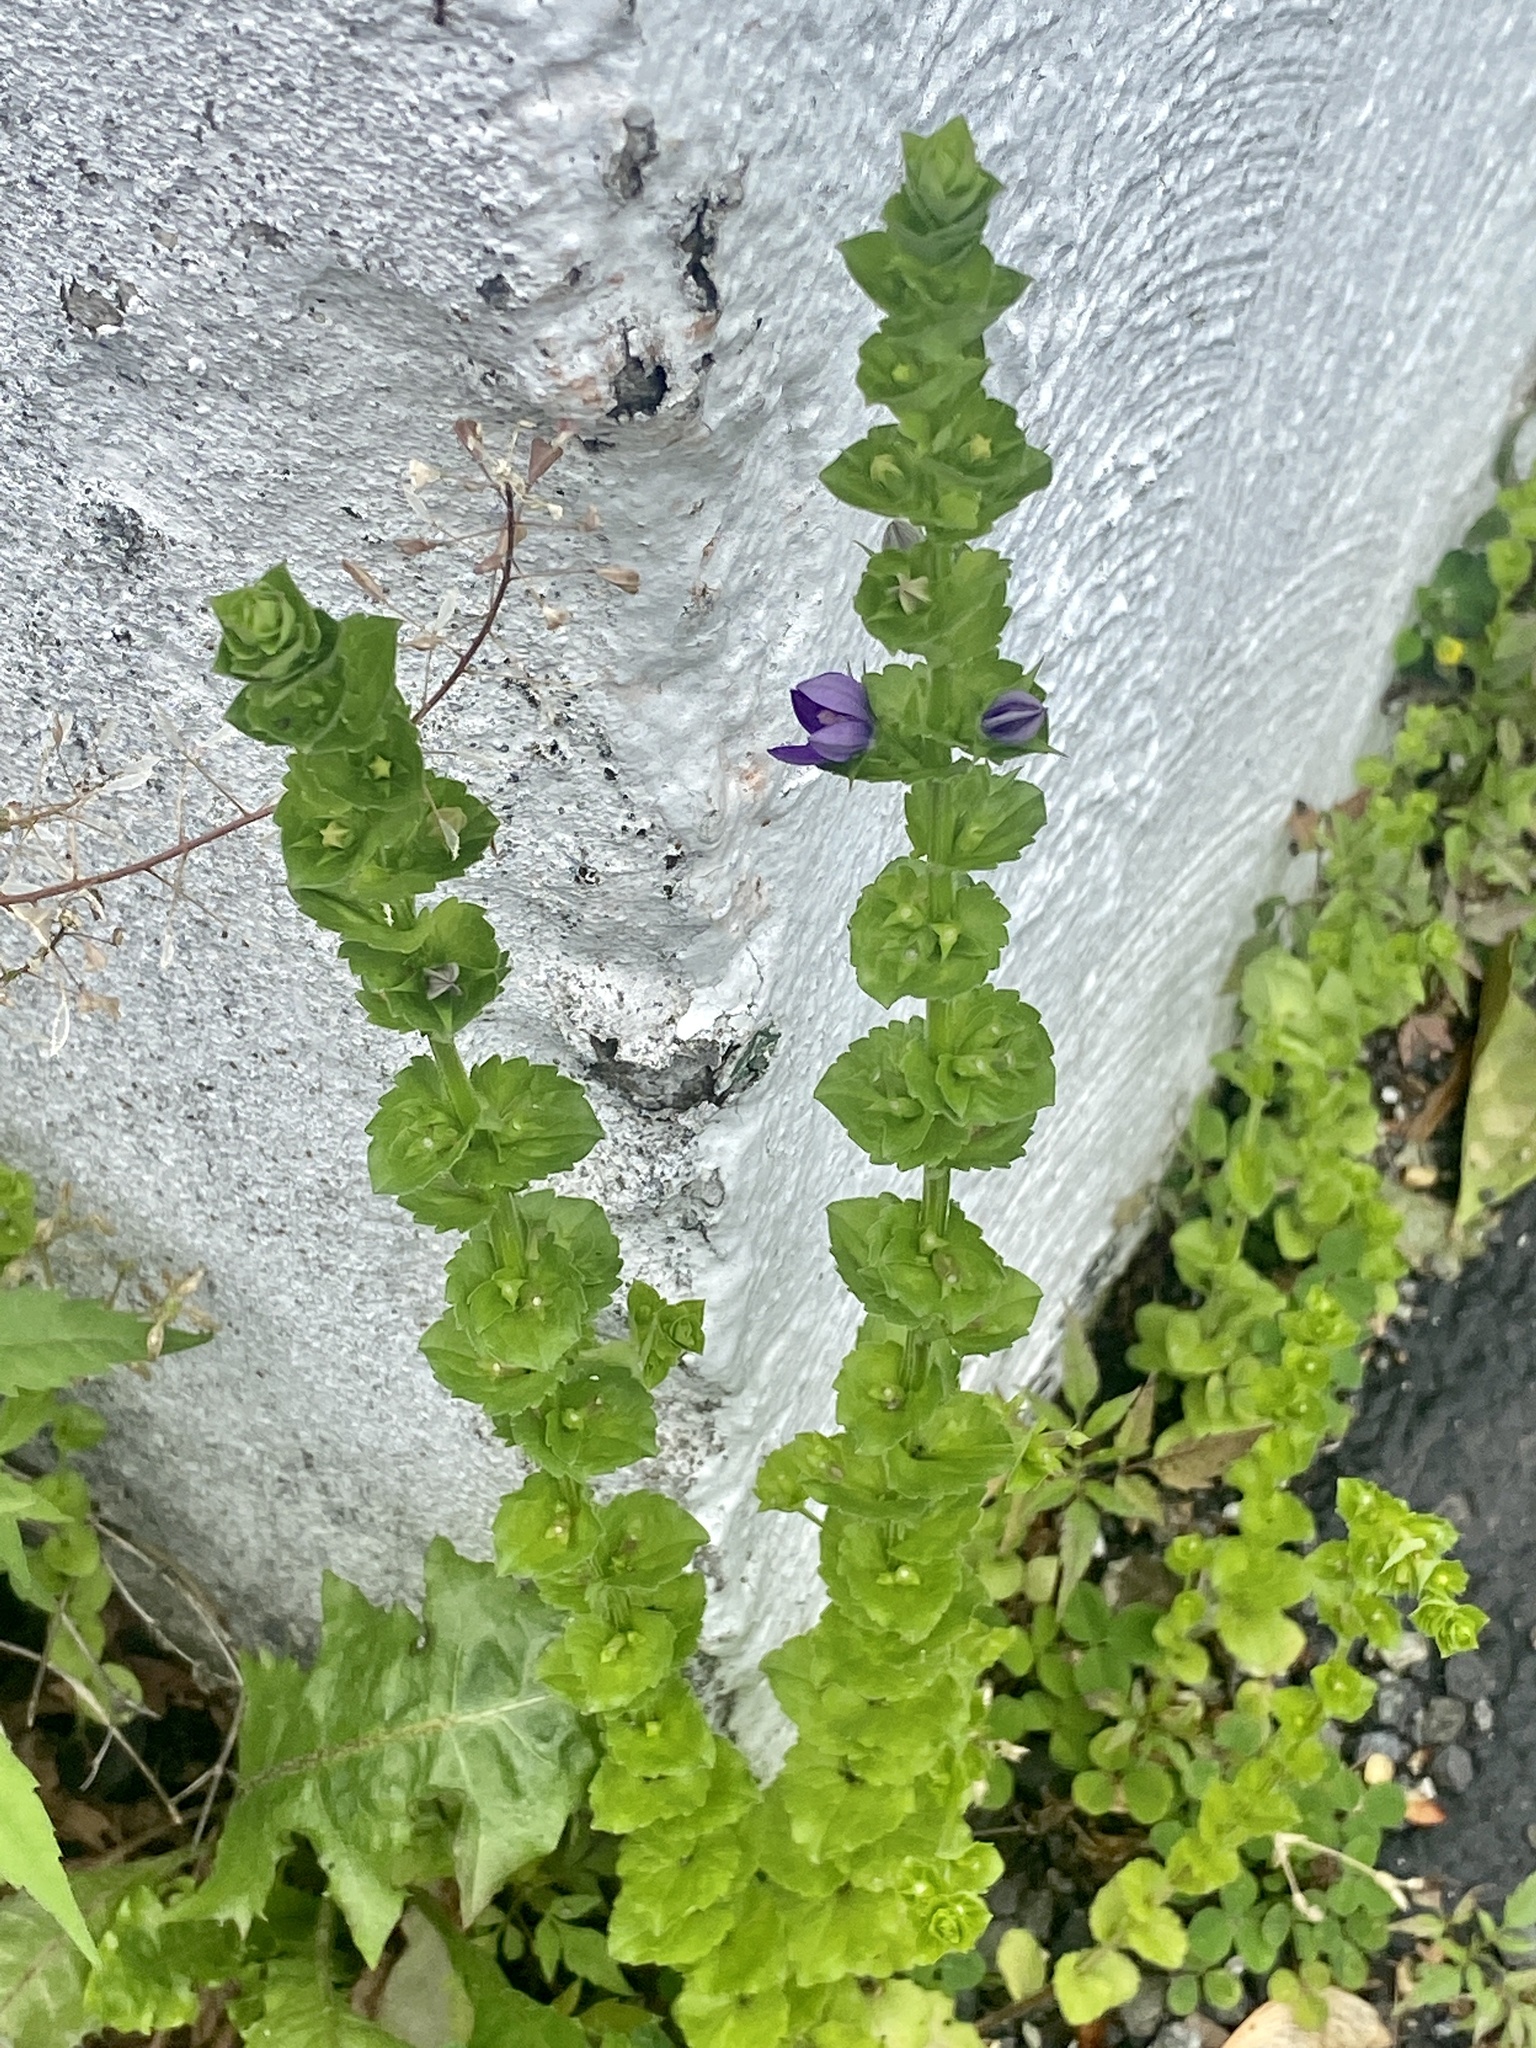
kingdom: Plantae
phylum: Tracheophyta
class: Magnoliopsida
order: Asterales
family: Campanulaceae
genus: Triodanis
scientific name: Triodanis perfoliata
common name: Clasping venus' looking-glass
